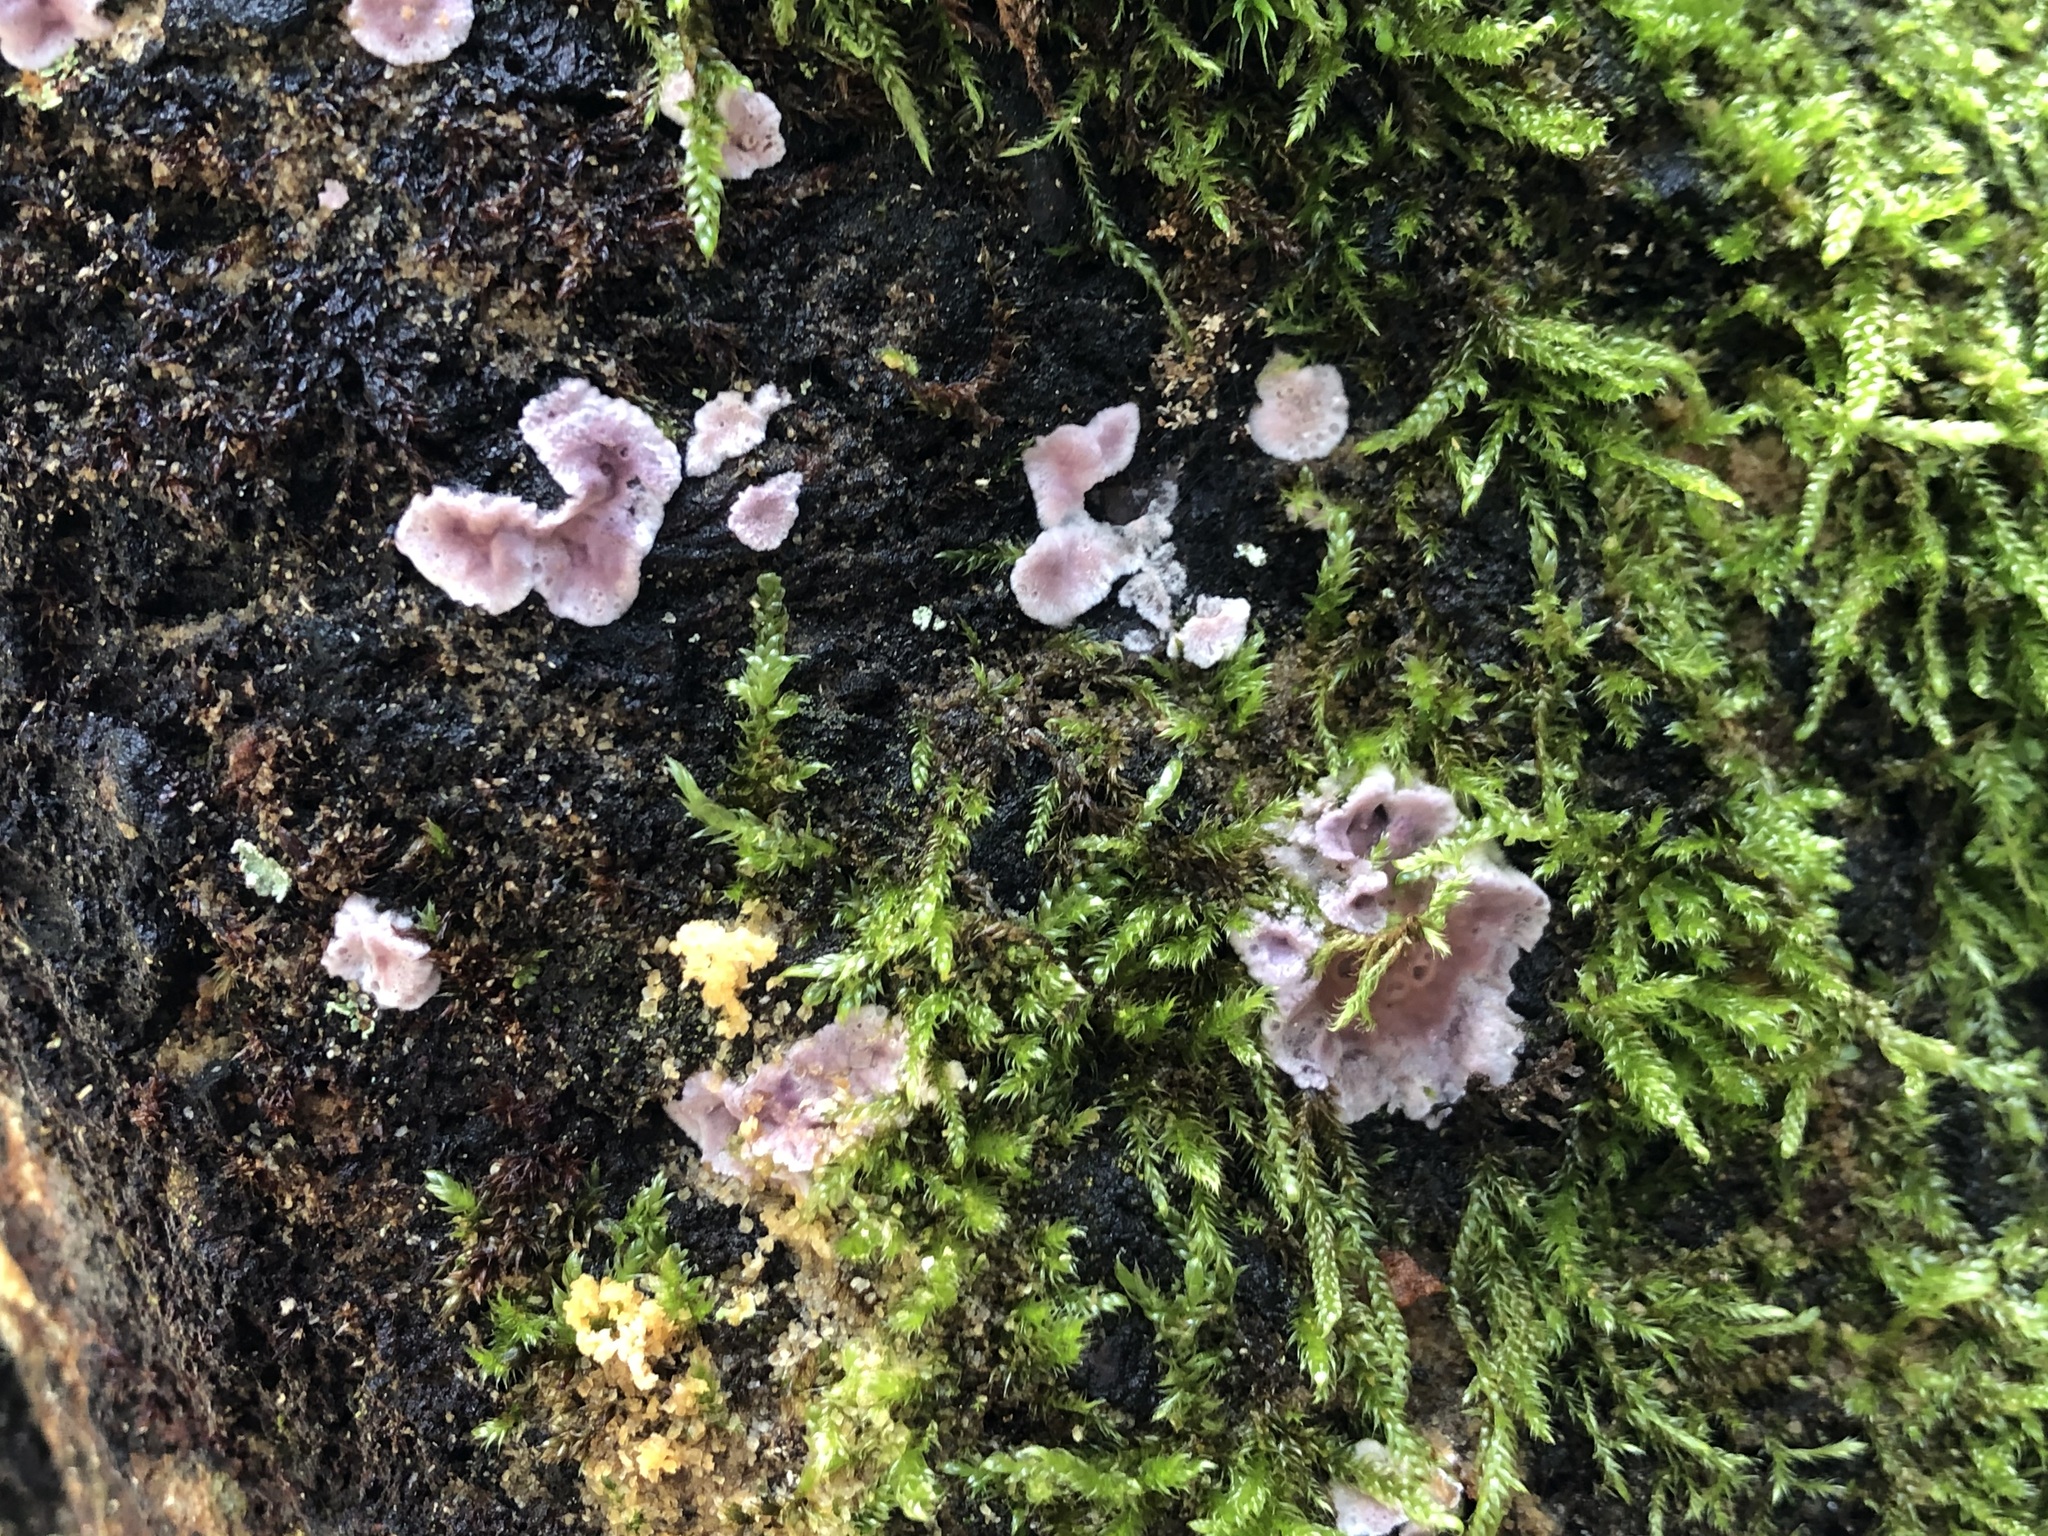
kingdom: Fungi
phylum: Basidiomycota
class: Agaricomycetes
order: Agaricales
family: Cyphellaceae
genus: Chondrostereum
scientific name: Chondrostereum purpureum
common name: Silver leaf disease
